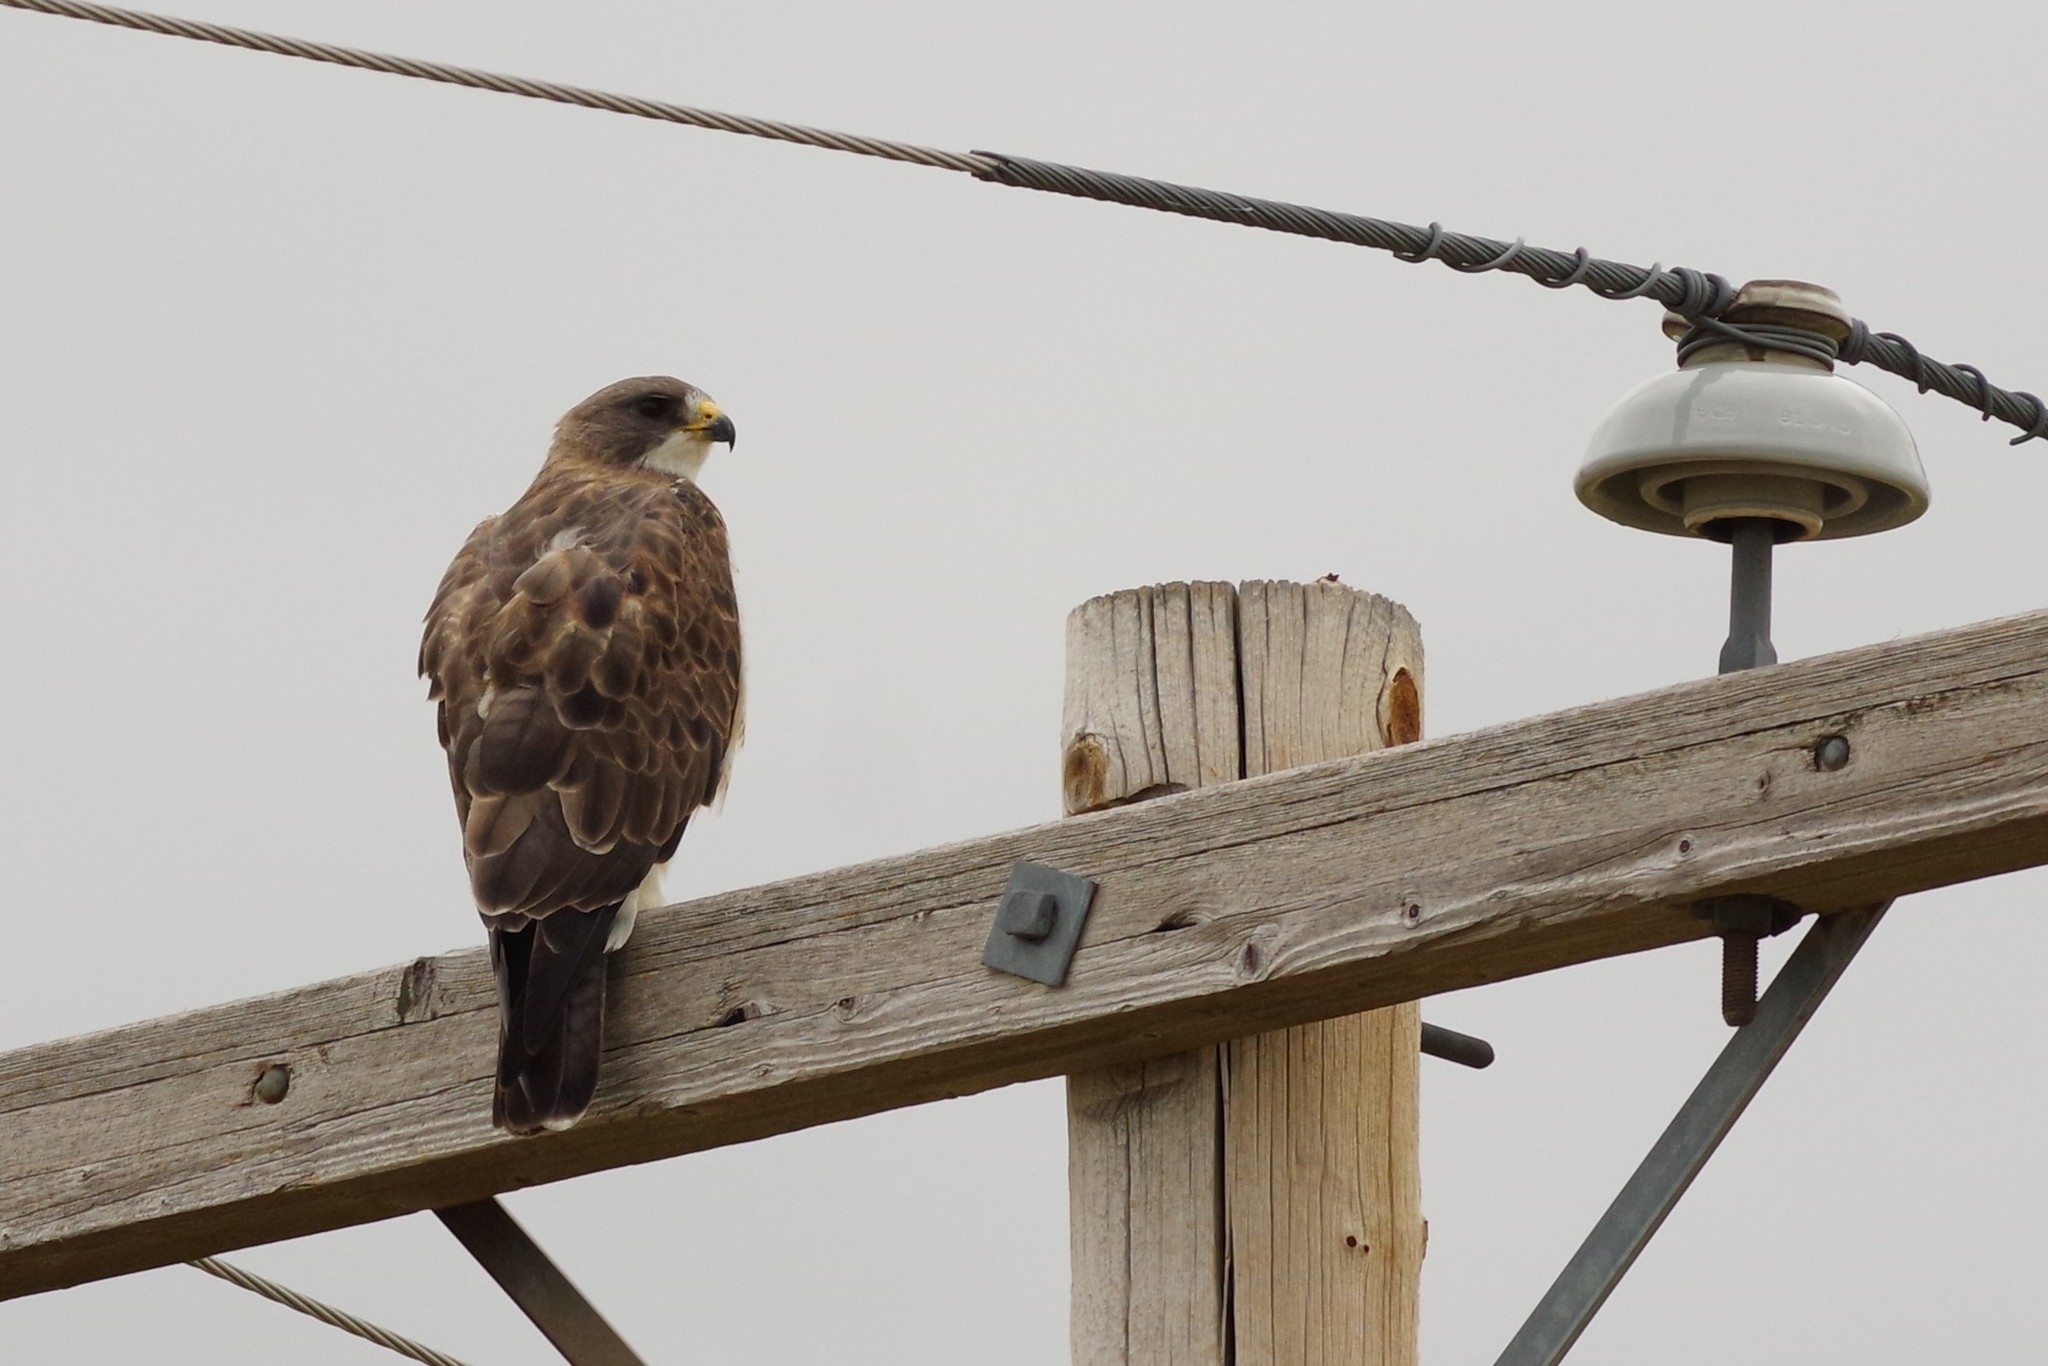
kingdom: Animalia
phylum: Chordata
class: Aves
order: Accipitriformes
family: Accipitridae
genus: Buteo
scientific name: Buteo swainsoni
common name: Swainson's hawk
